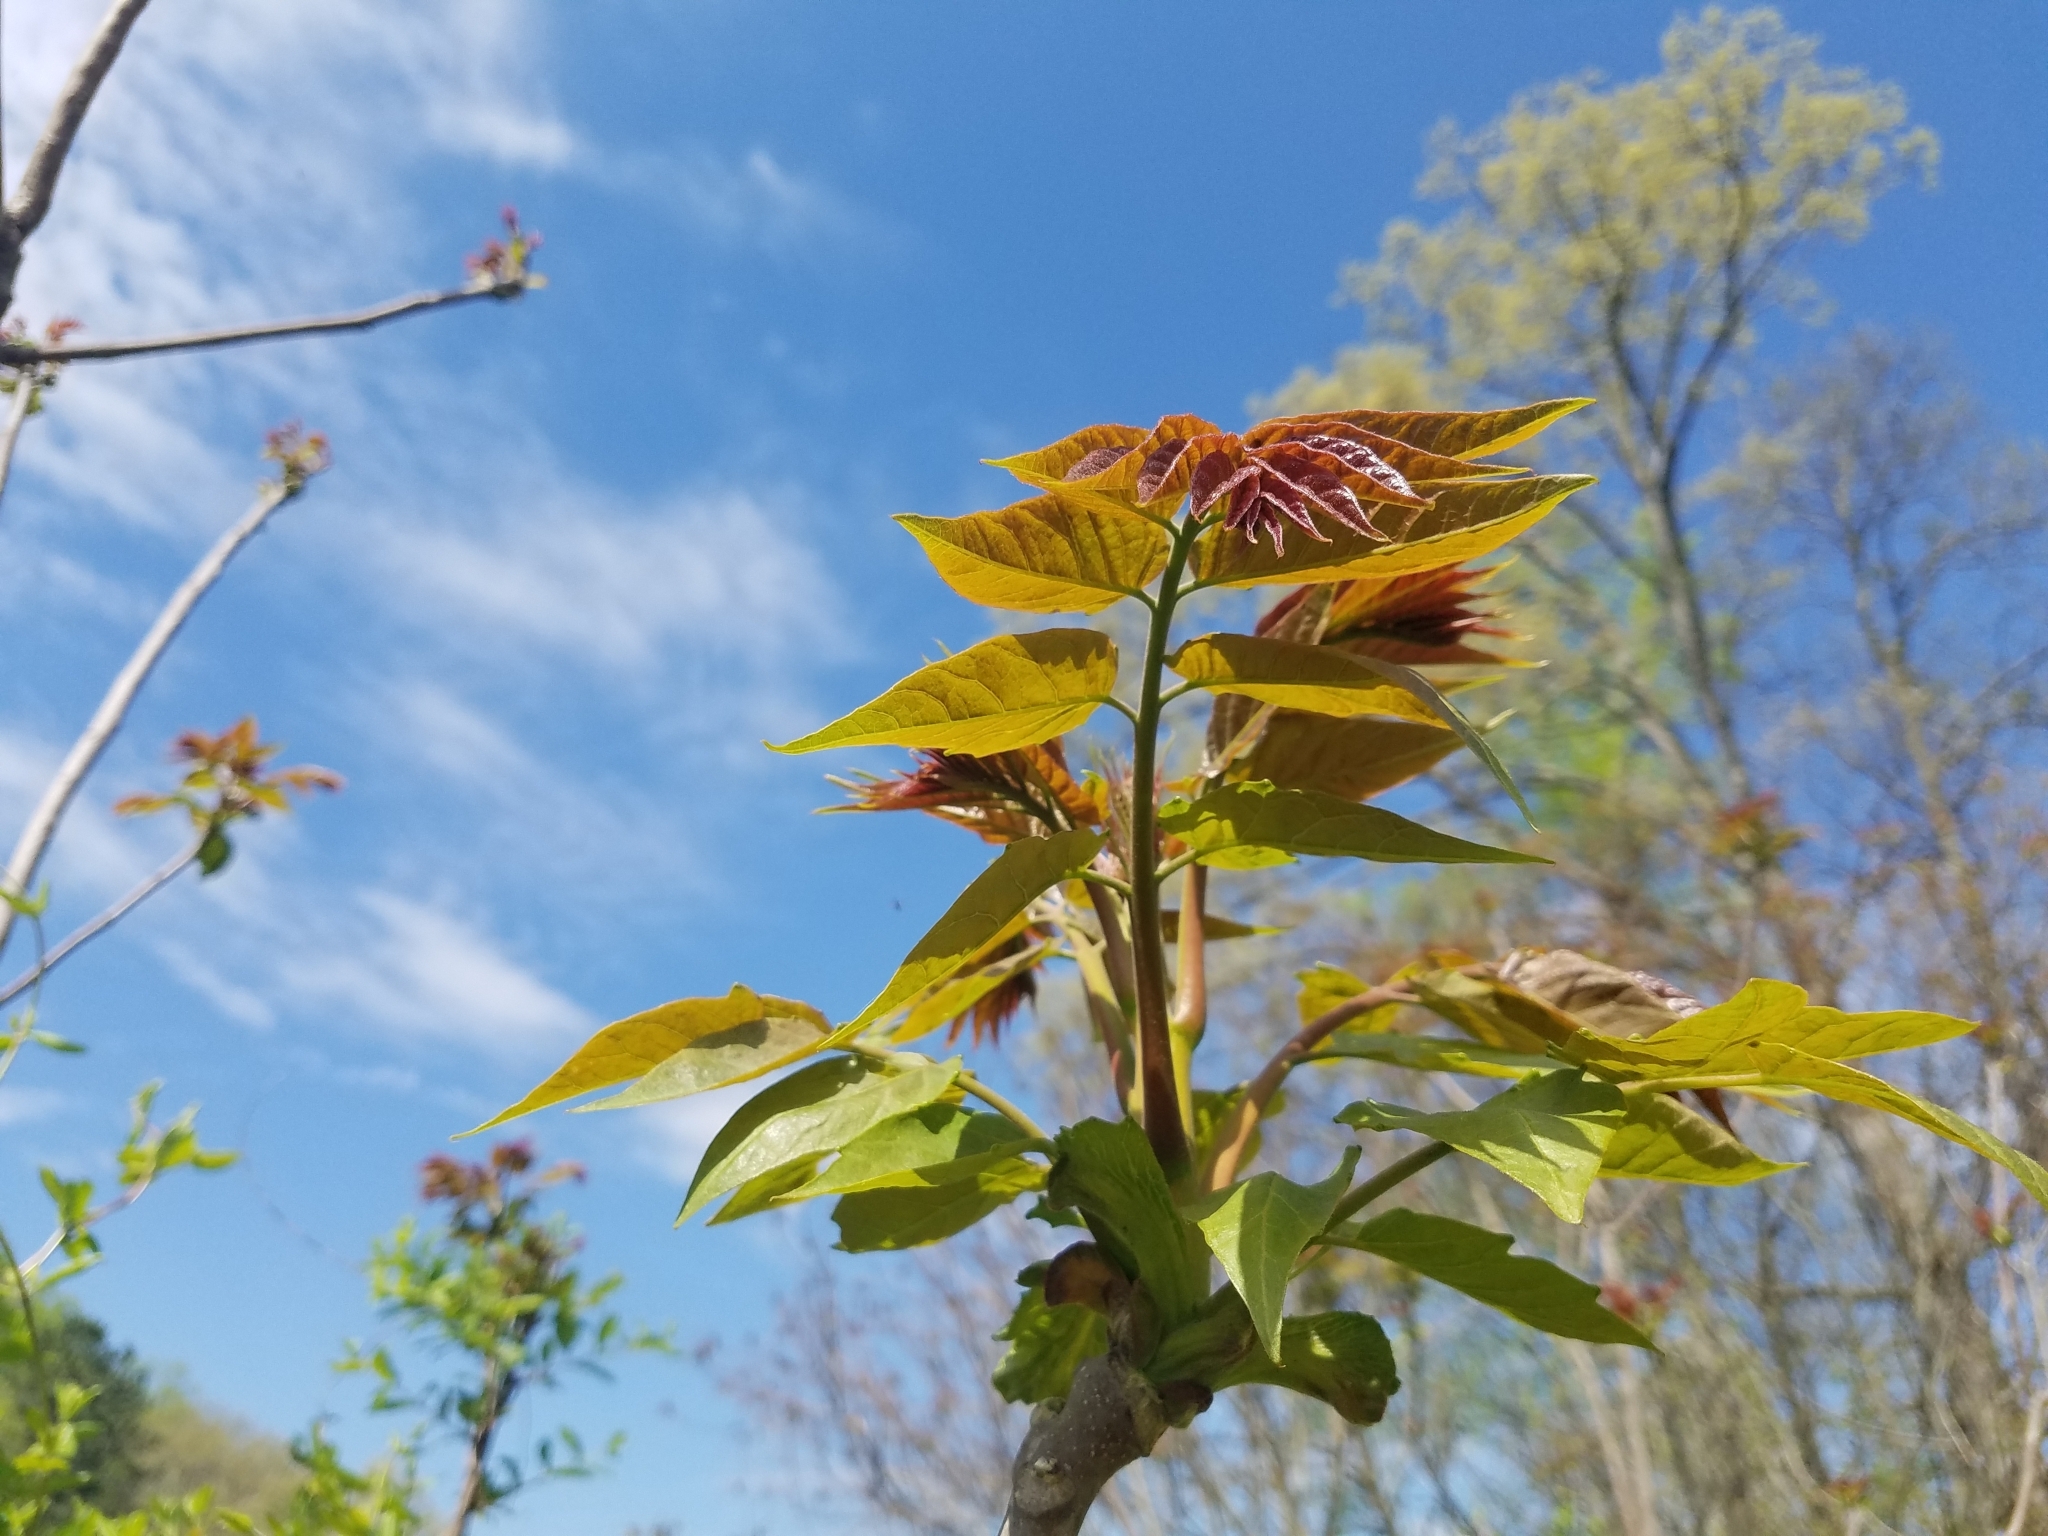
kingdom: Plantae
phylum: Tracheophyta
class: Magnoliopsida
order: Sapindales
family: Simaroubaceae
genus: Ailanthus
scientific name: Ailanthus altissima
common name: Tree-of-heaven
